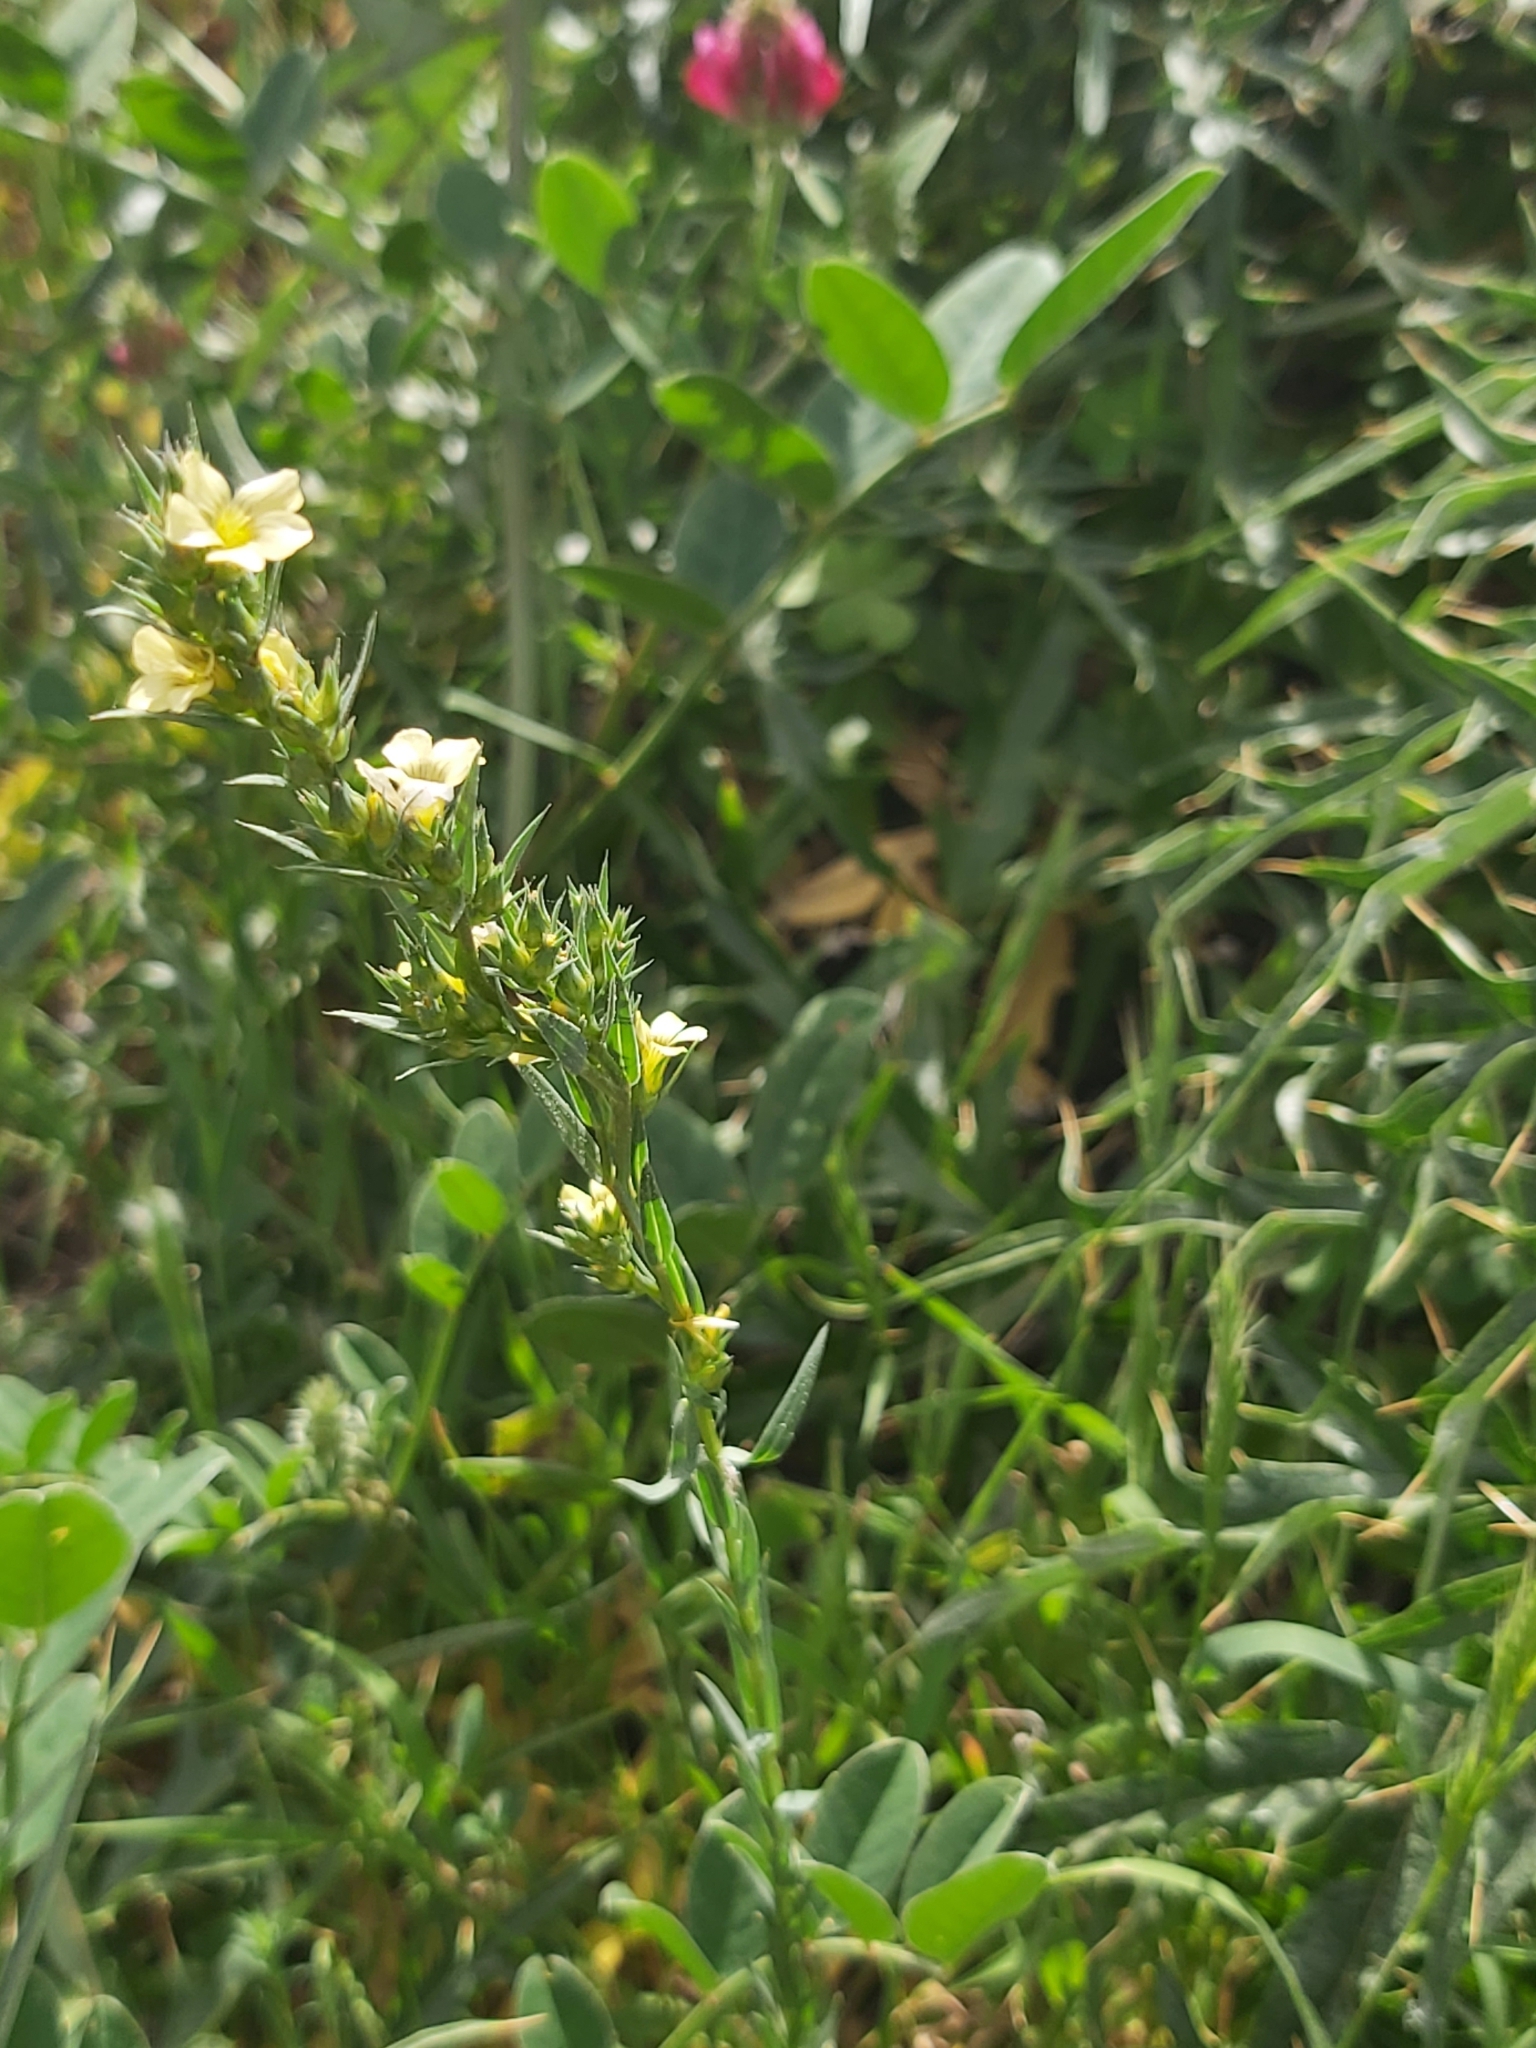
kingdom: Plantae
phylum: Tracheophyta
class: Magnoliopsida
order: Malpighiales
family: Linaceae
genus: Linum
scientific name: Linum strictum
